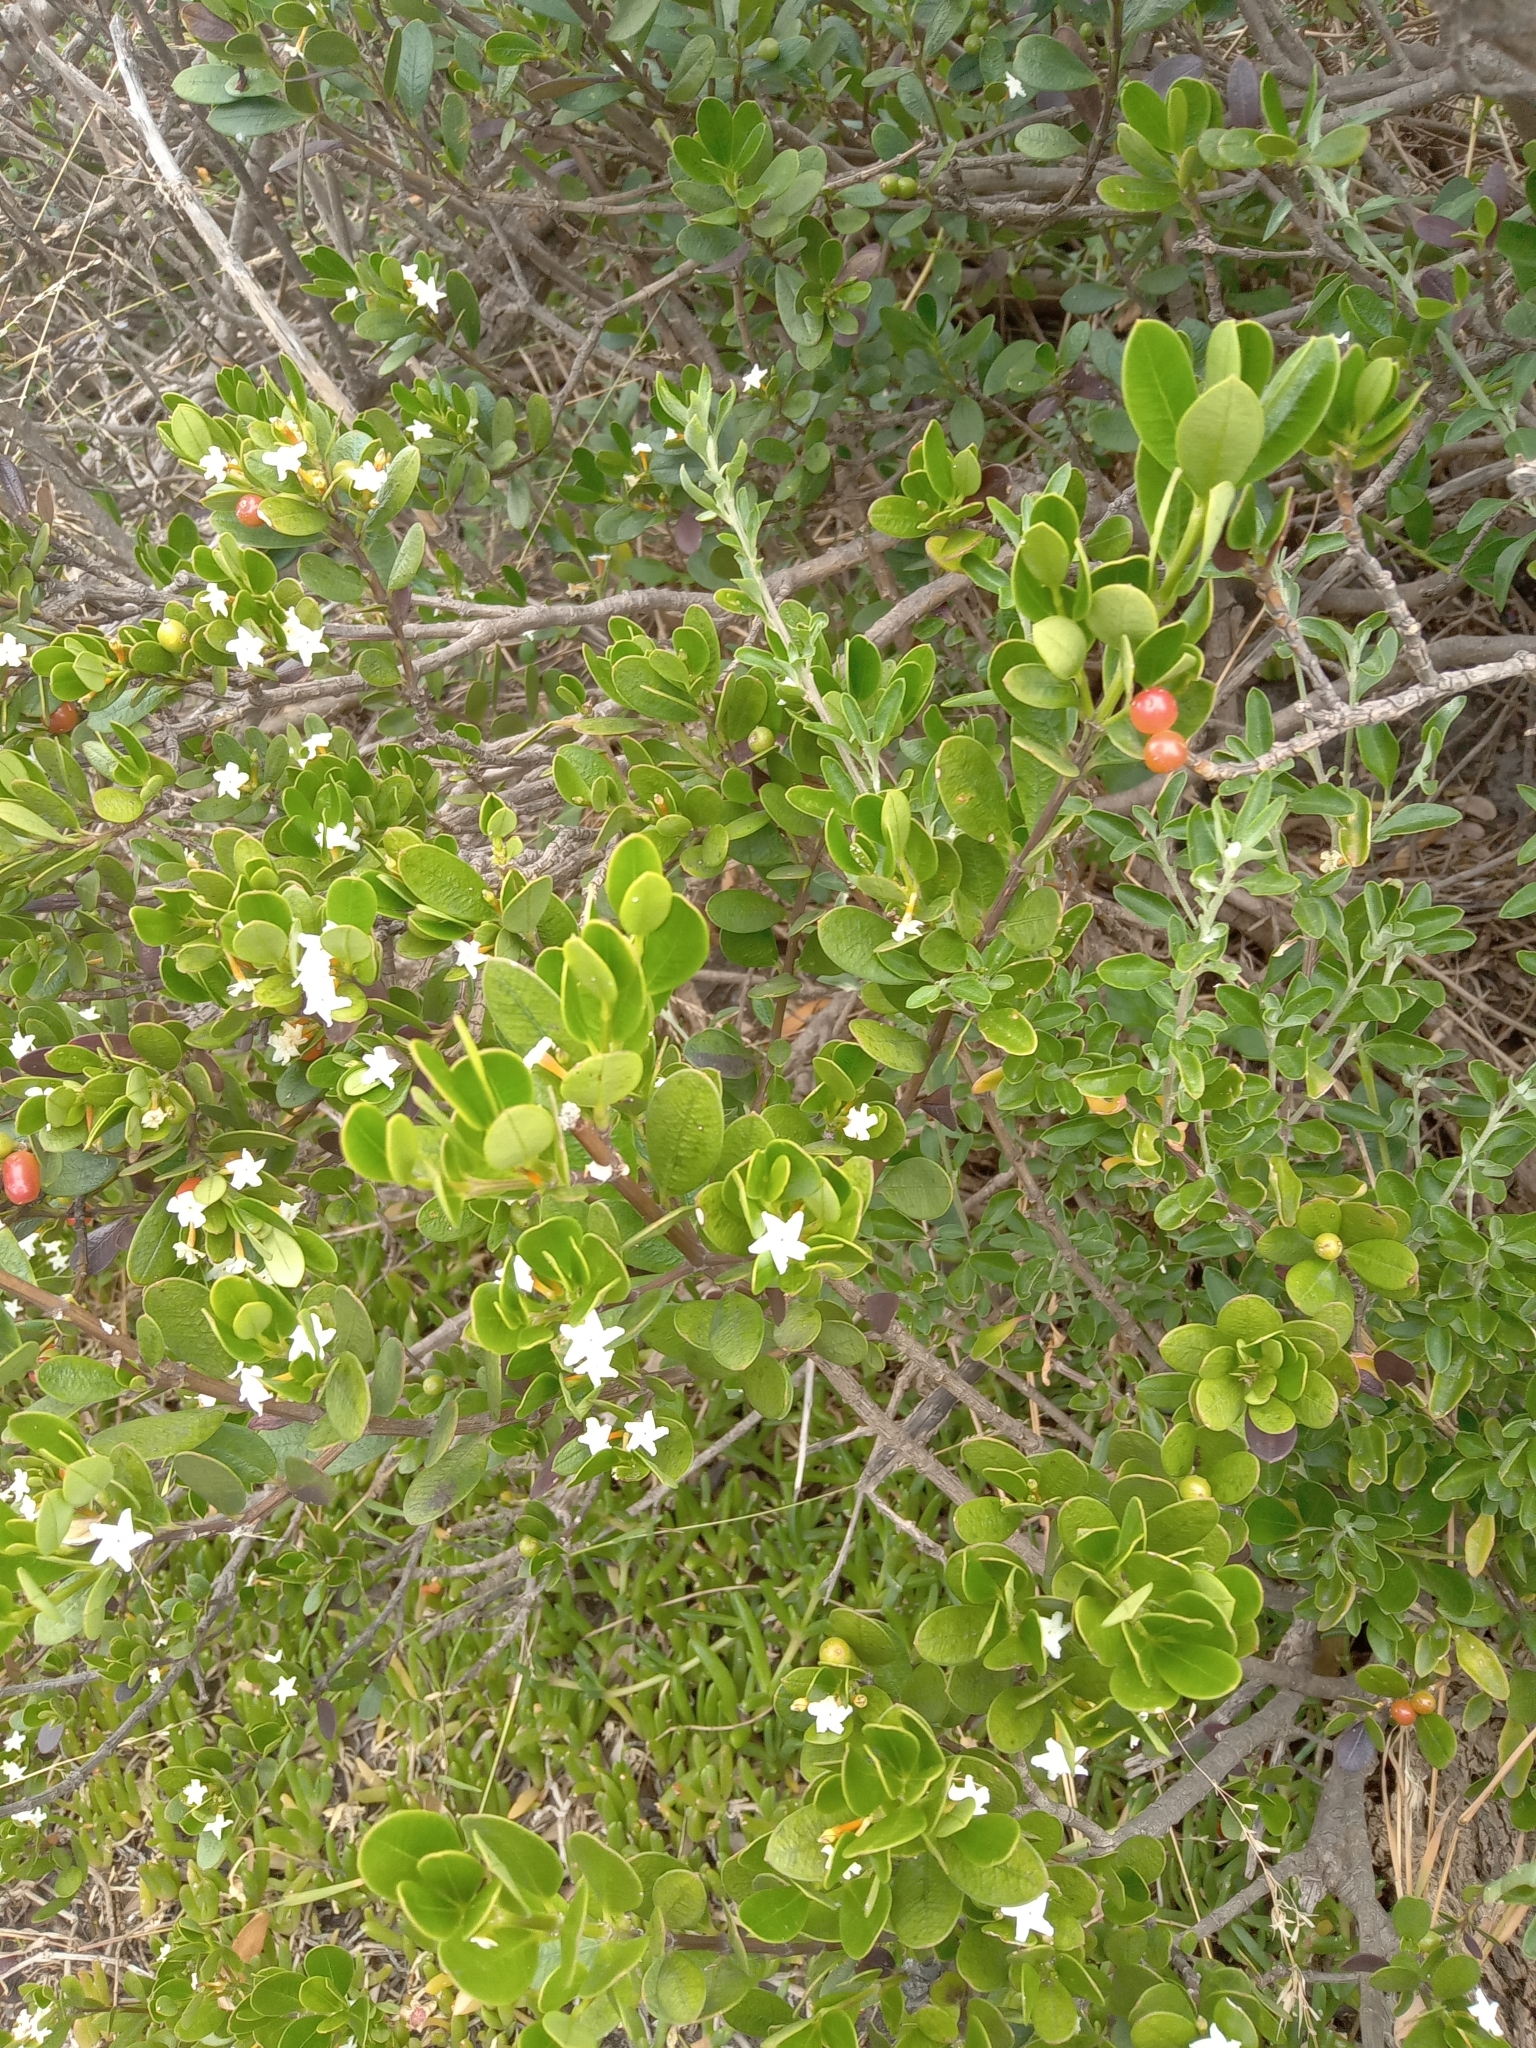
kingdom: Plantae
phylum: Tracheophyta
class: Magnoliopsida
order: Gentianales
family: Apocynaceae
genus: Alyxia
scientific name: Alyxia buxifolia
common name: Dysentery-bush
